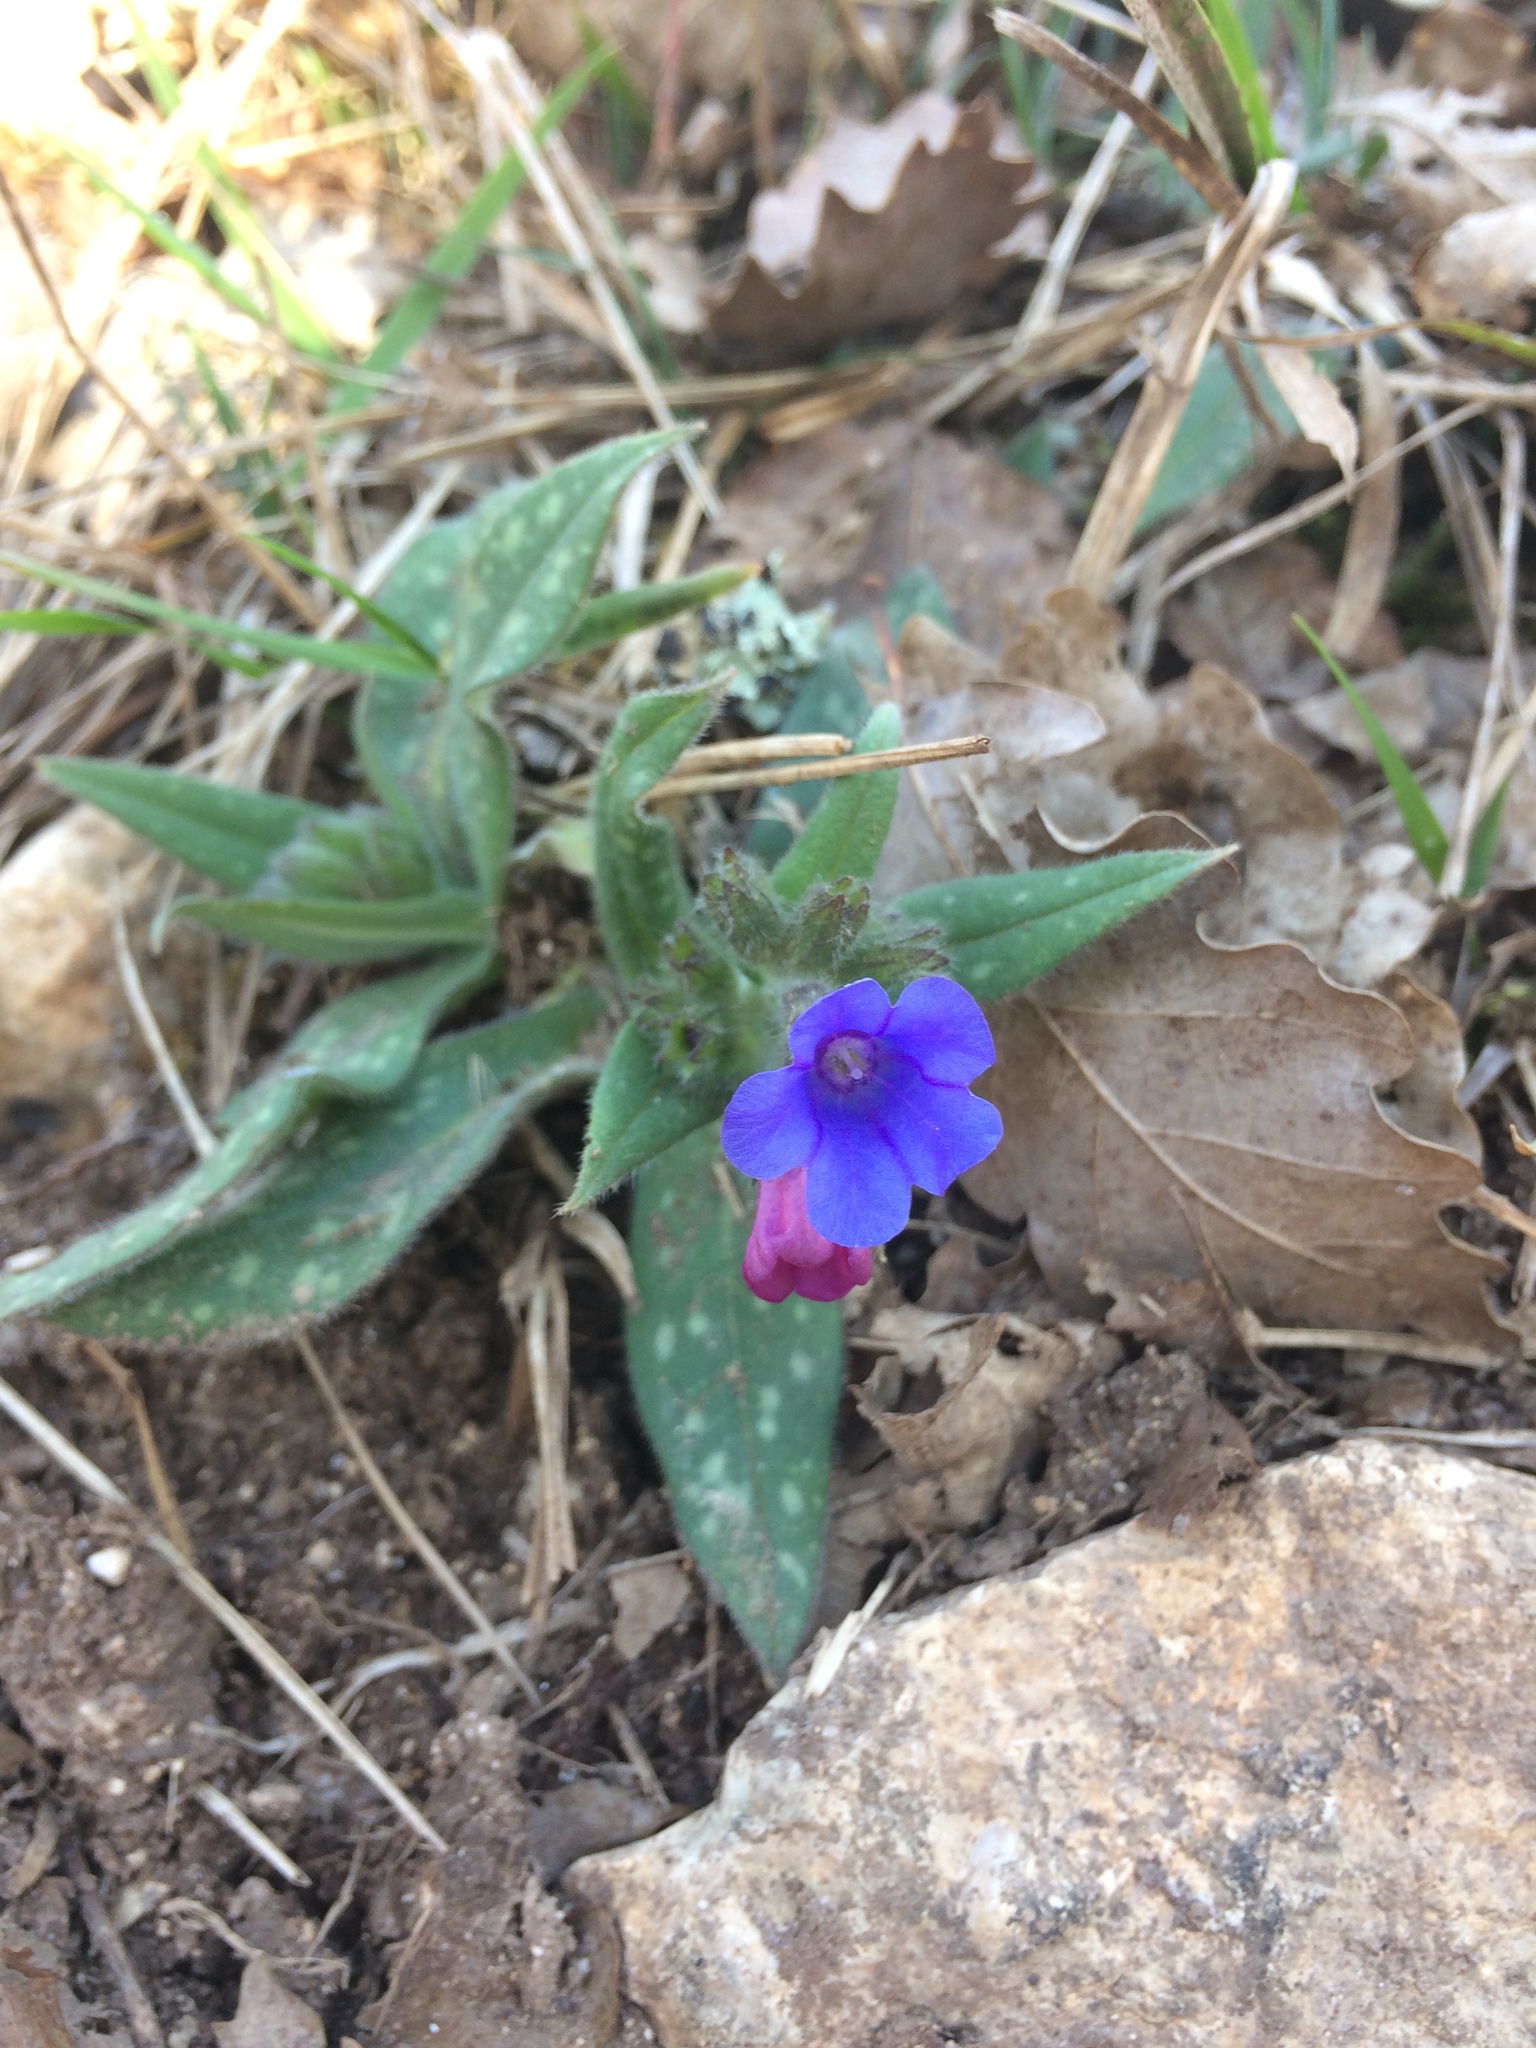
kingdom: Plantae
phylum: Tracheophyta
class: Magnoliopsida
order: Boraginales
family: Boraginaceae
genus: Pulmonaria
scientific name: Pulmonaria officinalis
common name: Lungwort
